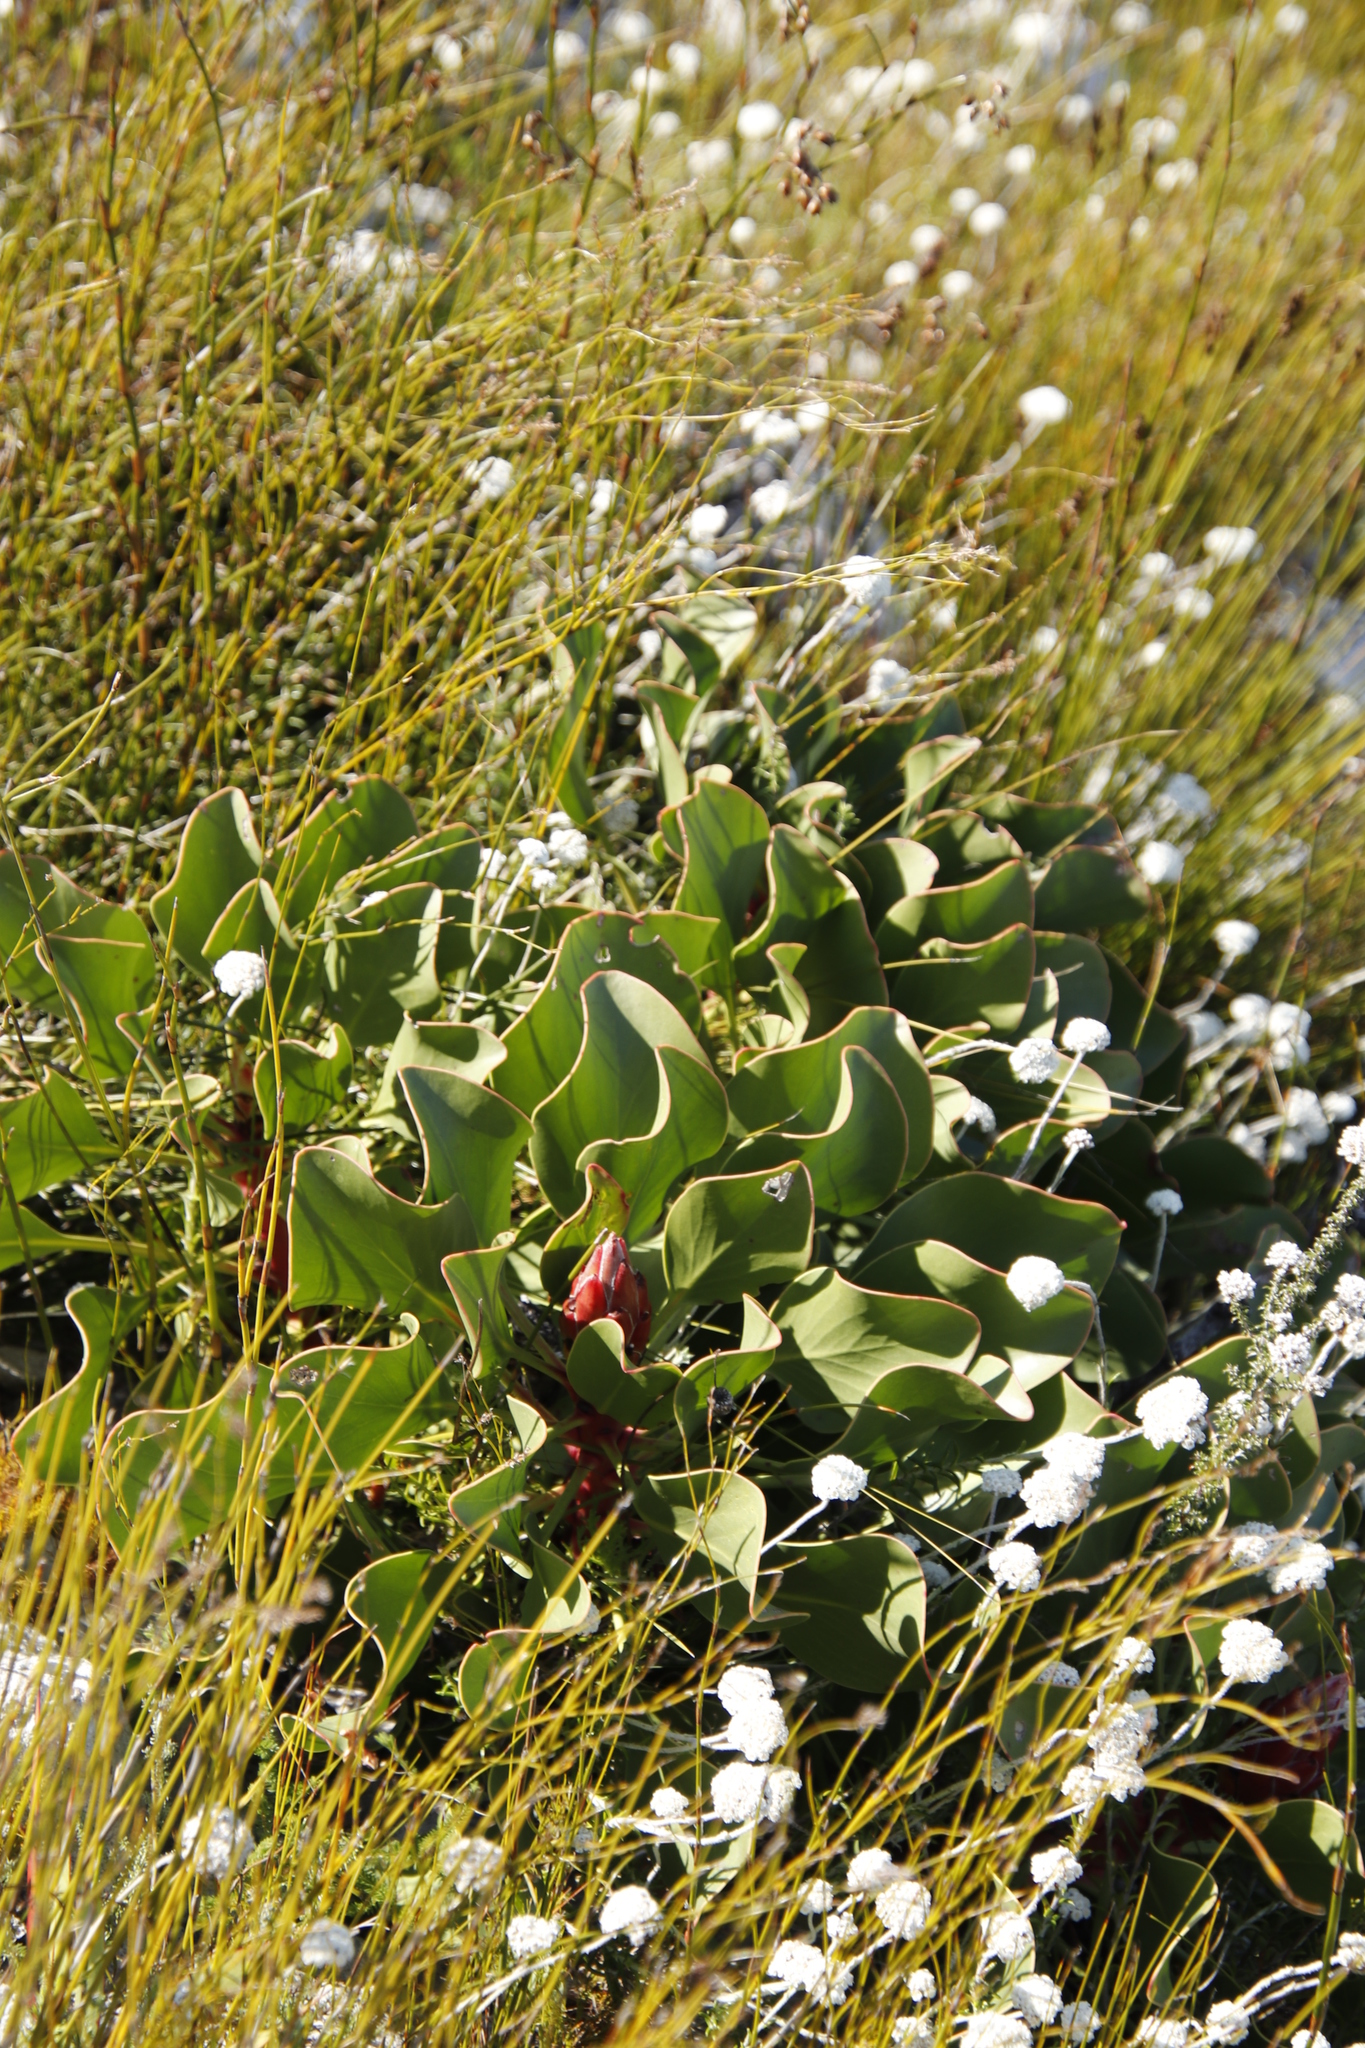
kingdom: Plantae
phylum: Tracheophyta
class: Magnoliopsida
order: Proteales
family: Proteaceae
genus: Protea
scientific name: Protea cynaroides
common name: King protea
